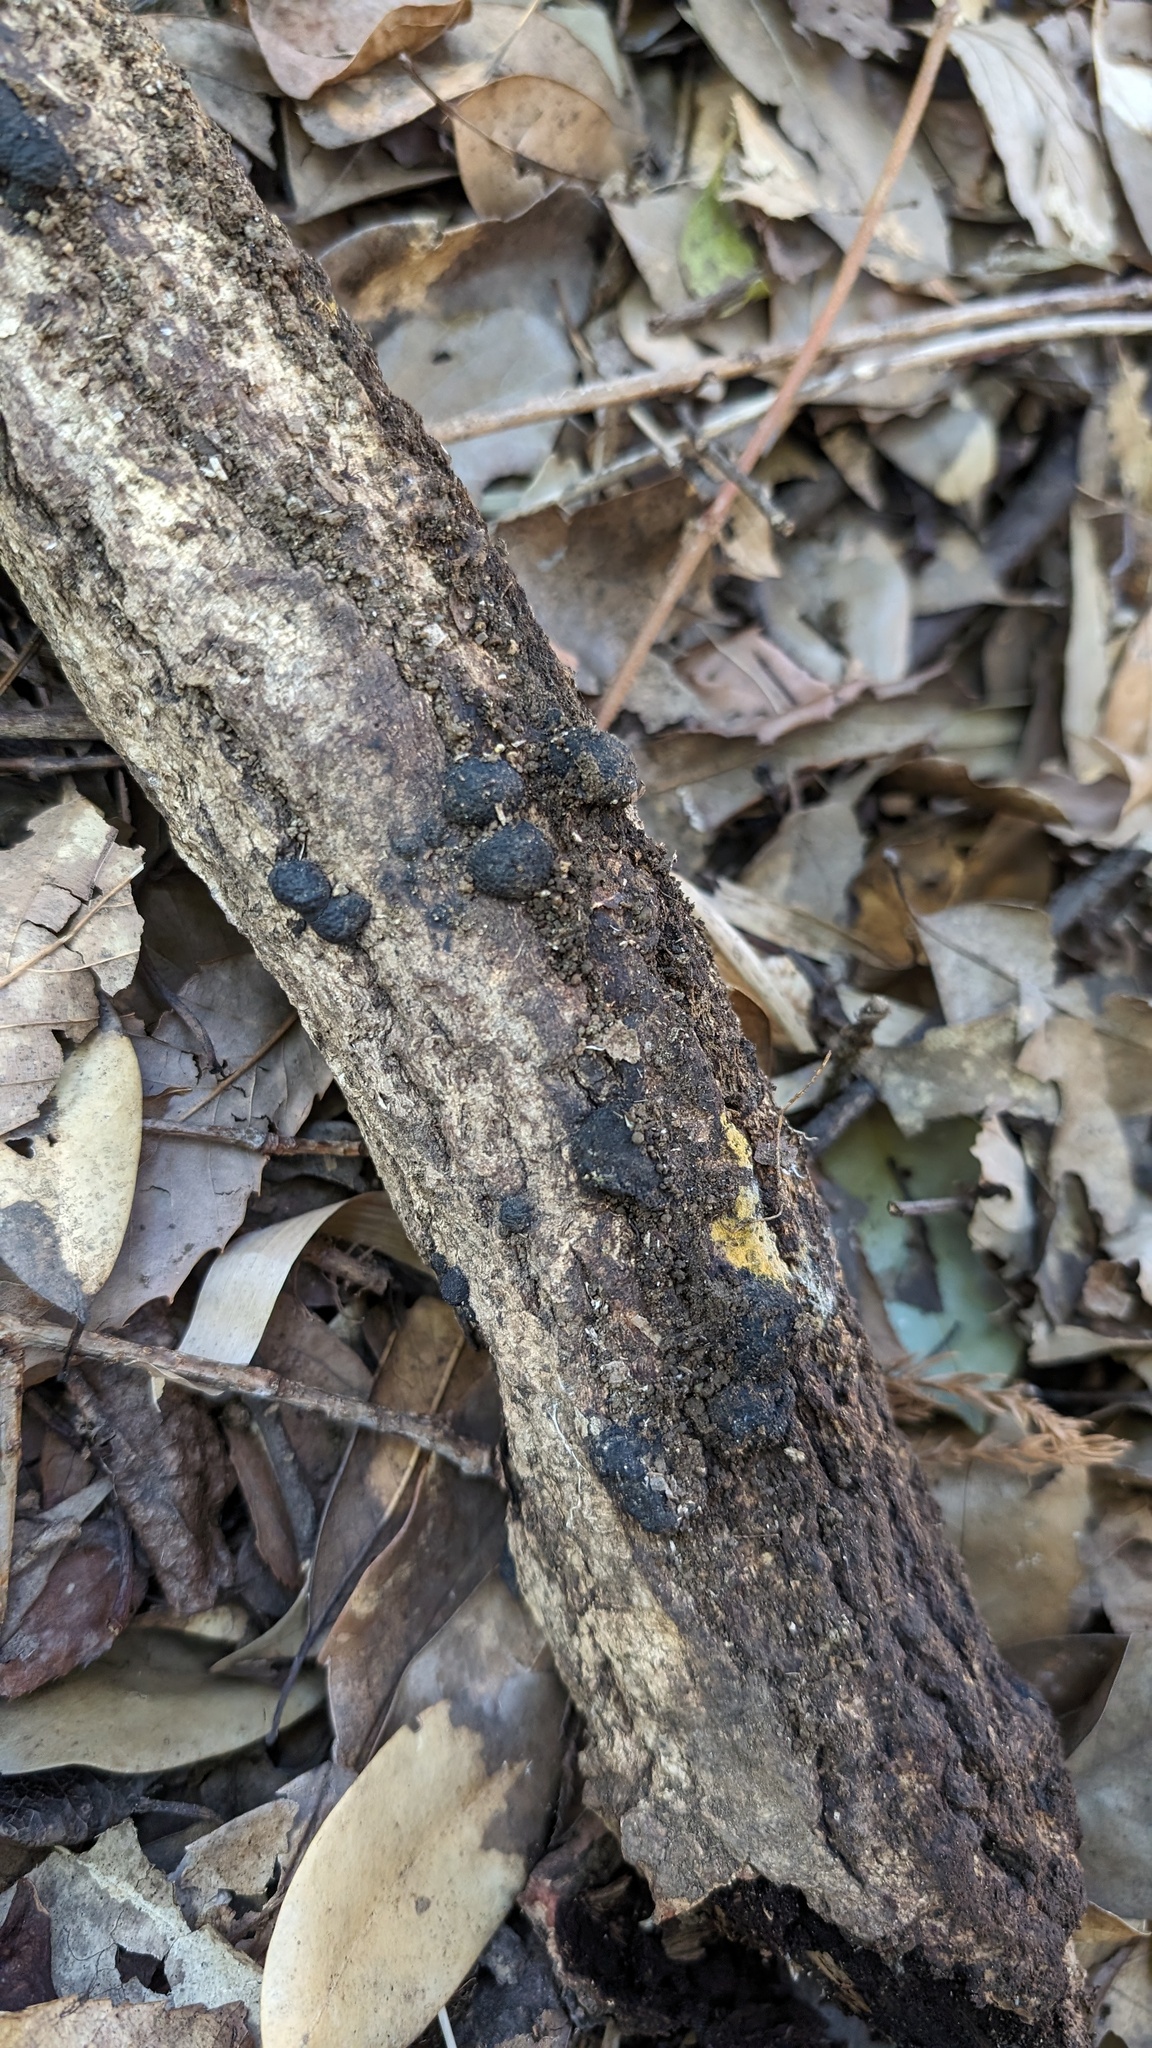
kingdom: Fungi
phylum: Ascomycota
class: Sordariomycetes
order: Xylariales
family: Hypoxylaceae
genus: Annulohypoxylon
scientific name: Annulohypoxylon truncatum
